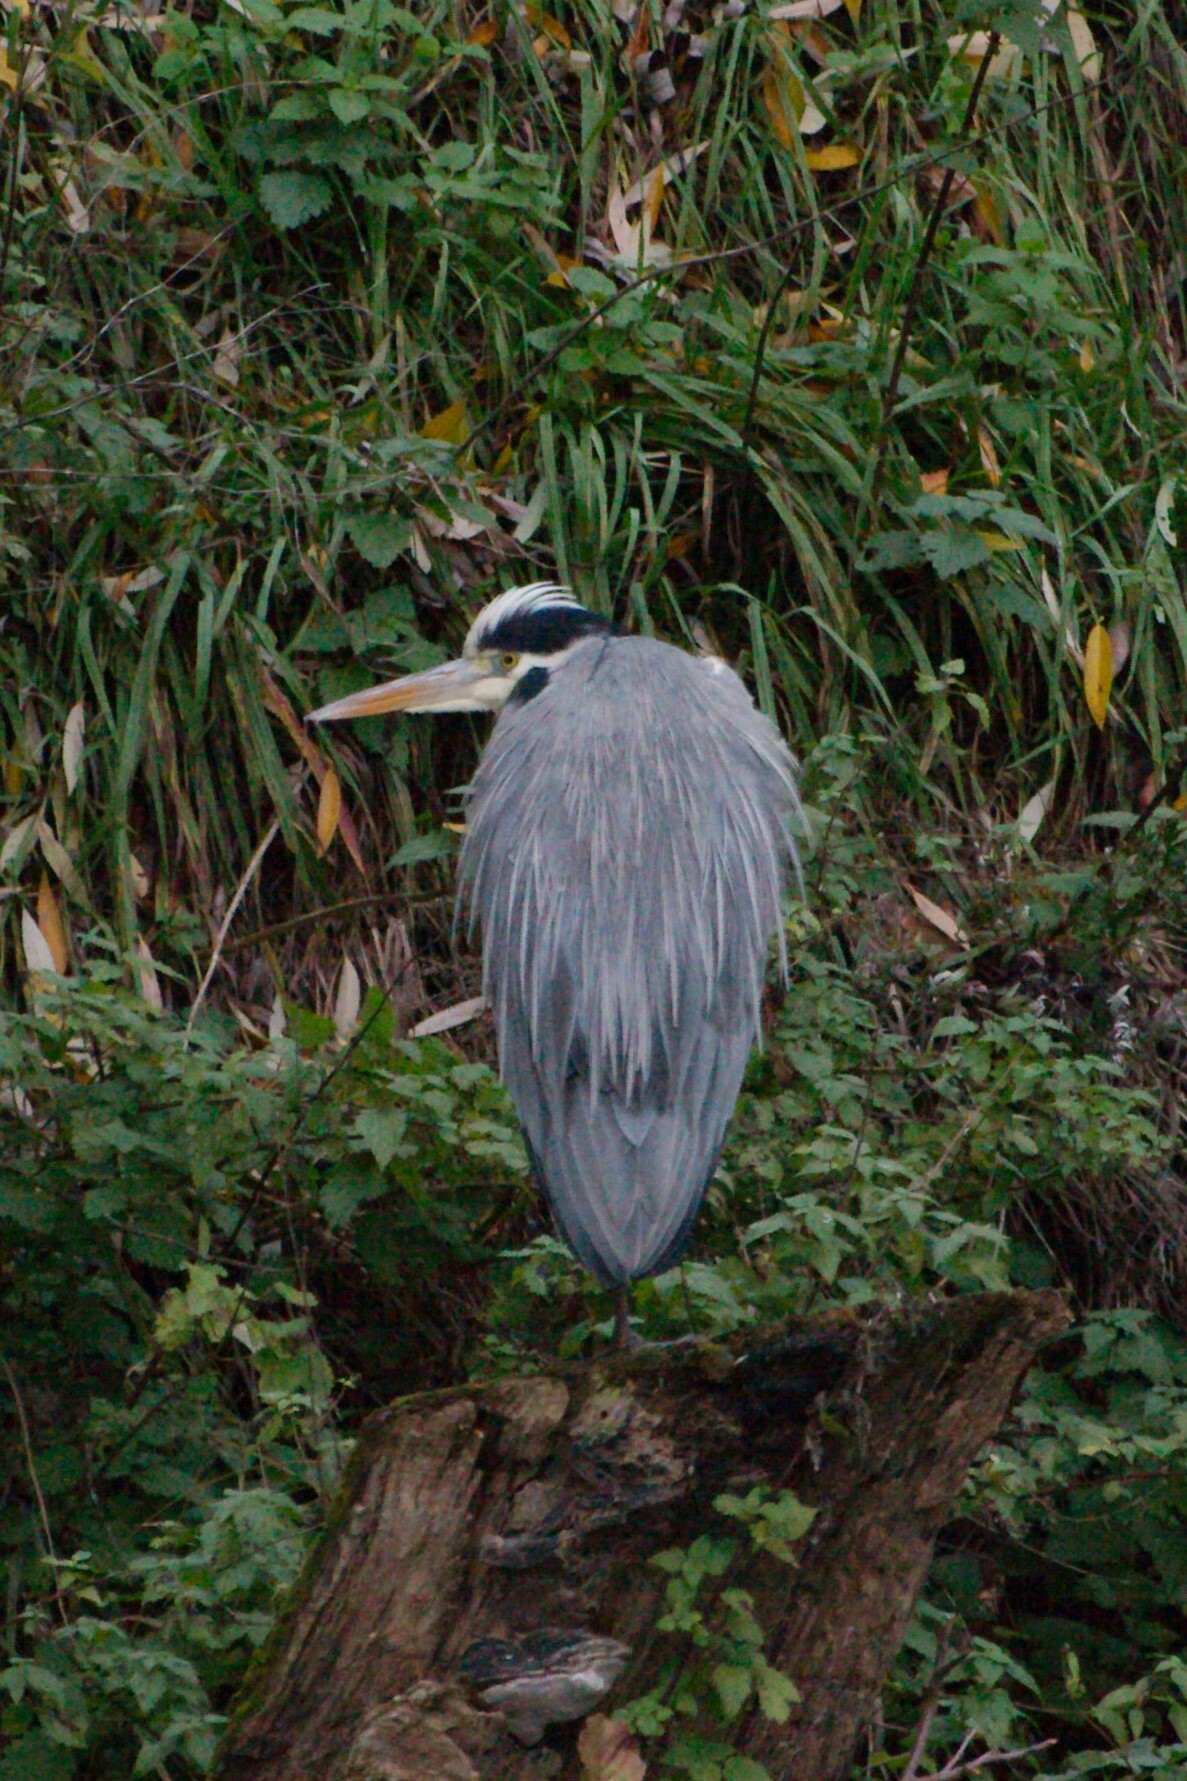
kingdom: Animalia
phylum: Chordata
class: Aves
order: Pelecaniformes
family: Ardeidae
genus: Ardea
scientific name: Ardea cinerea
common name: Grey heron
